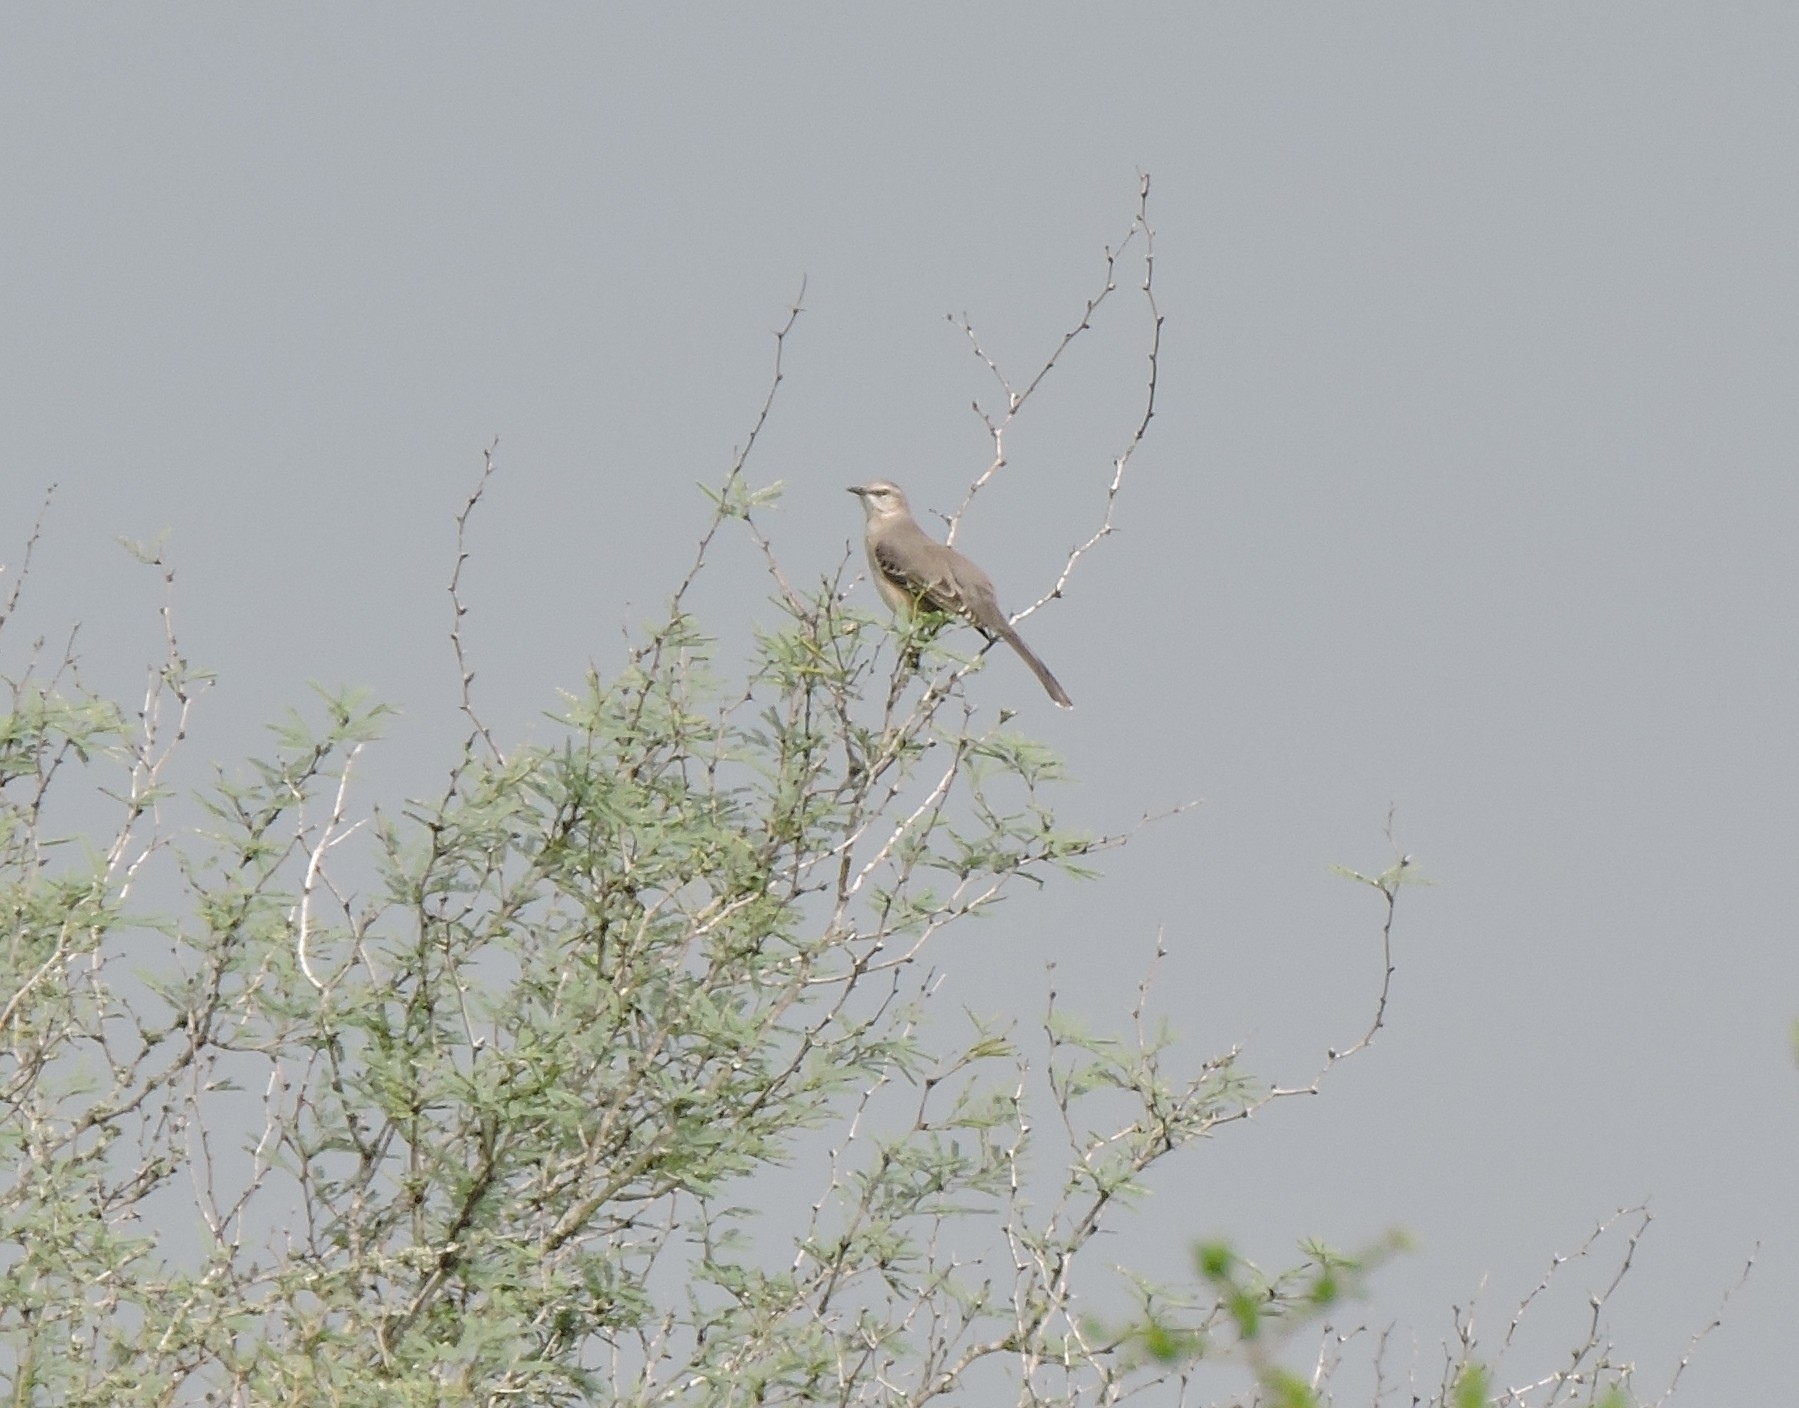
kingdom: Animalia
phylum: Chordata
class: Aves
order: Passeriformes
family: Mimidae
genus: Mimus
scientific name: Mimus polyglottos
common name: Northern mockingbird
